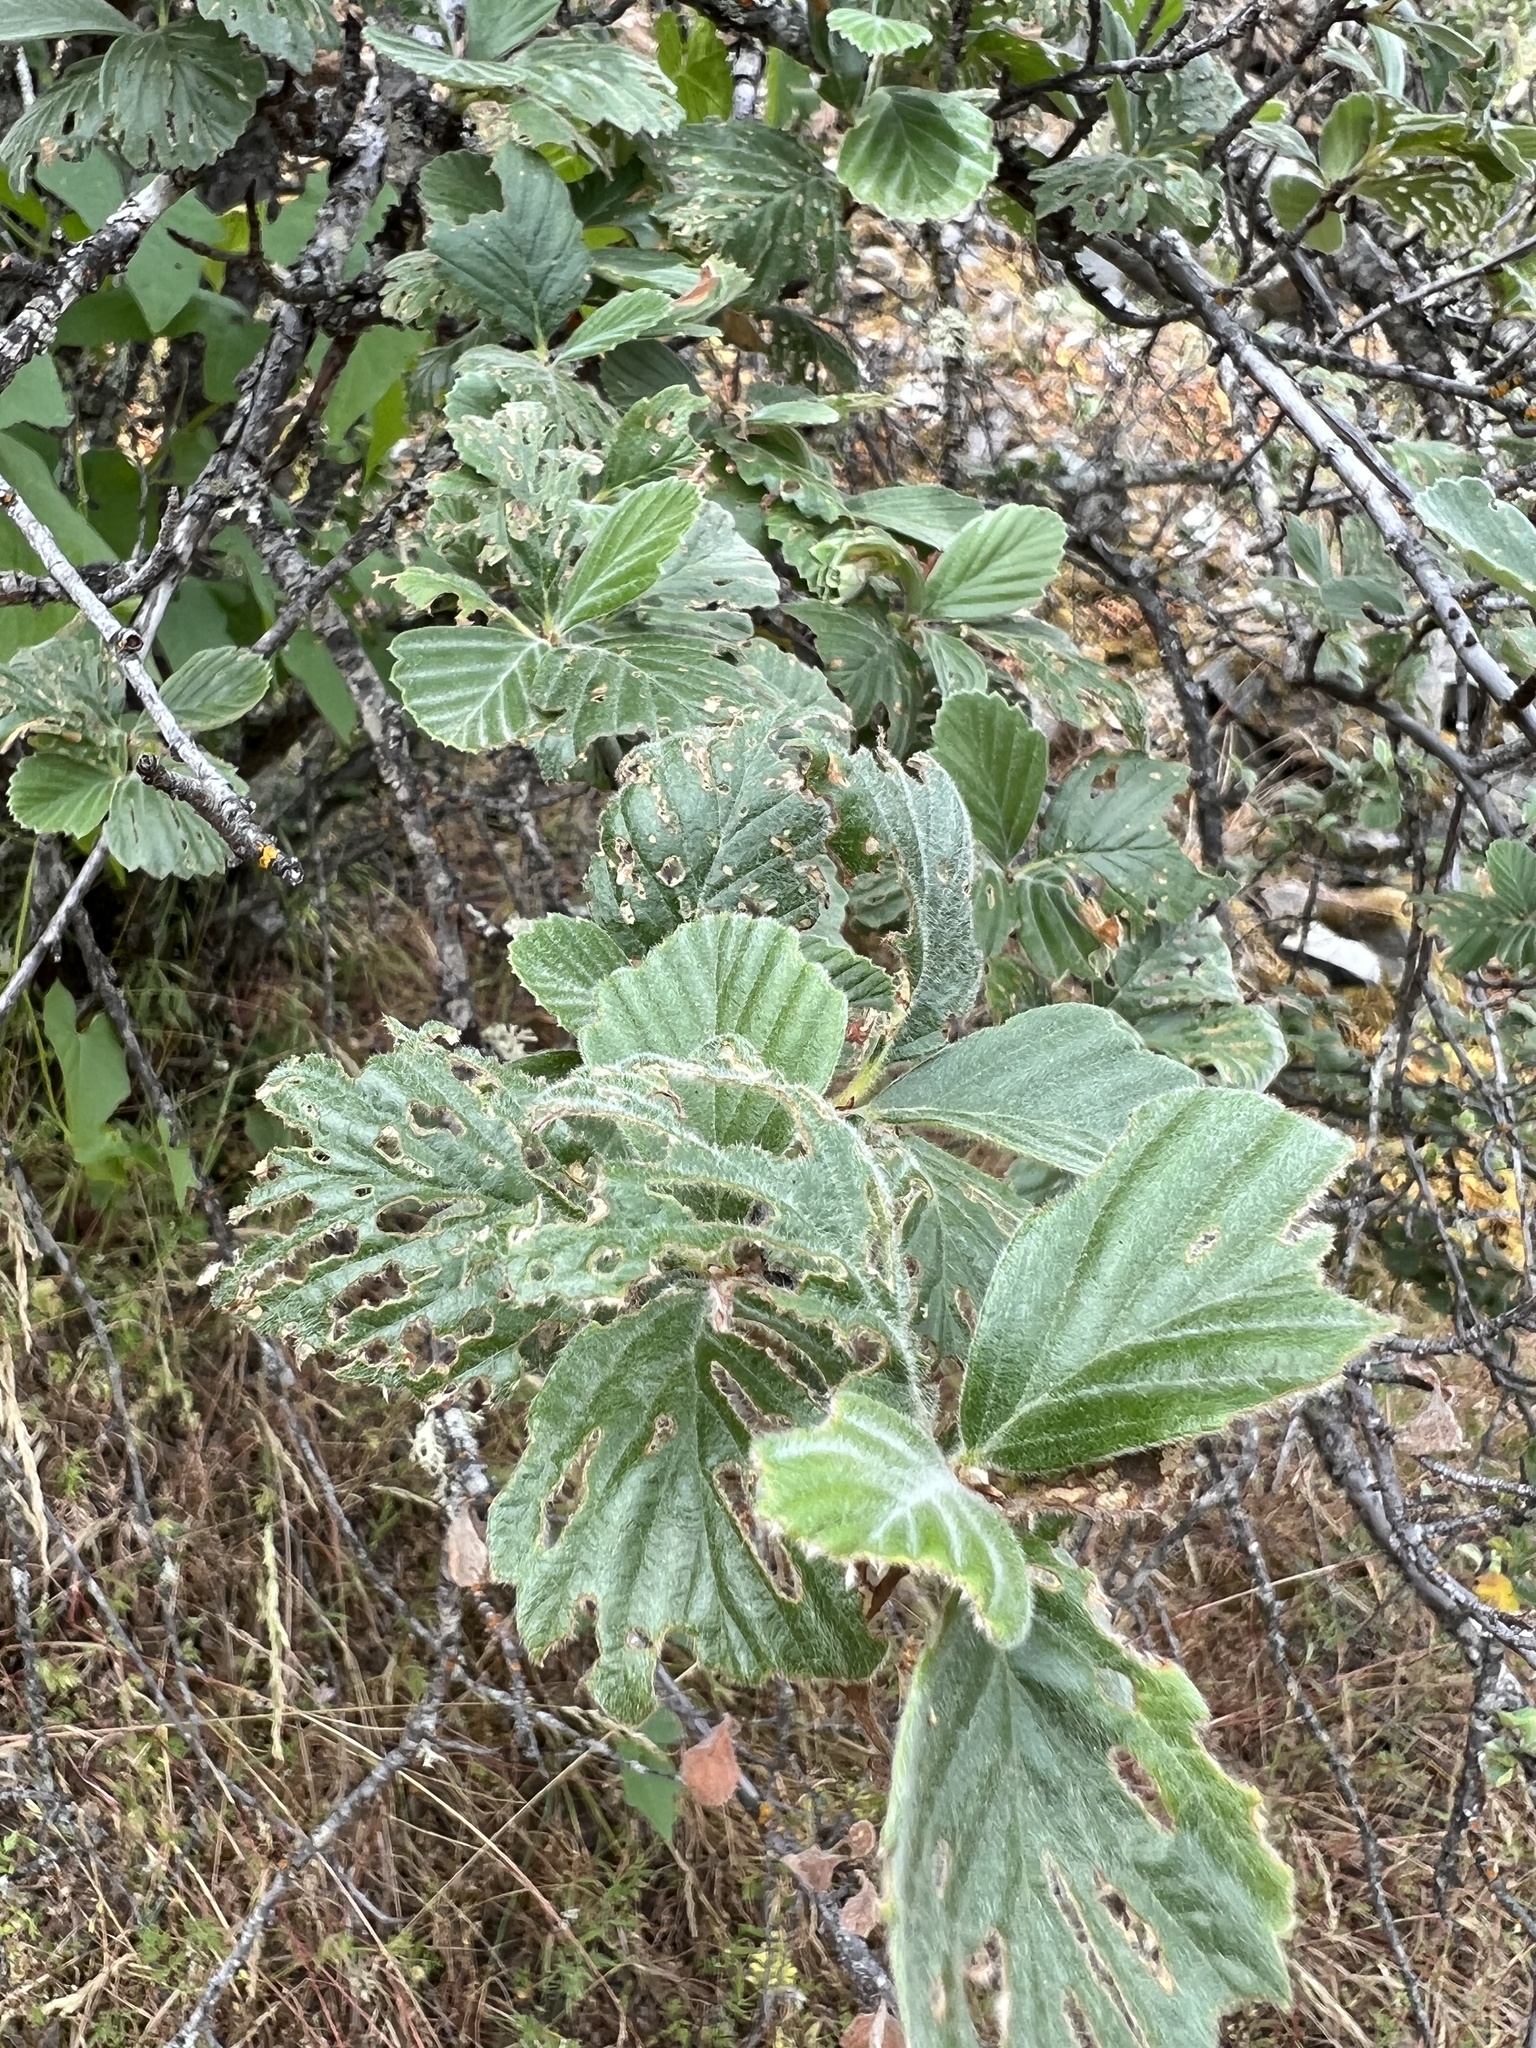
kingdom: Plantae
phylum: Tracheophyta
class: Magnoliopsida
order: Rosales
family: Rosaceae
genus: Cercocarpus
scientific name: Cercocarpus betuloides
